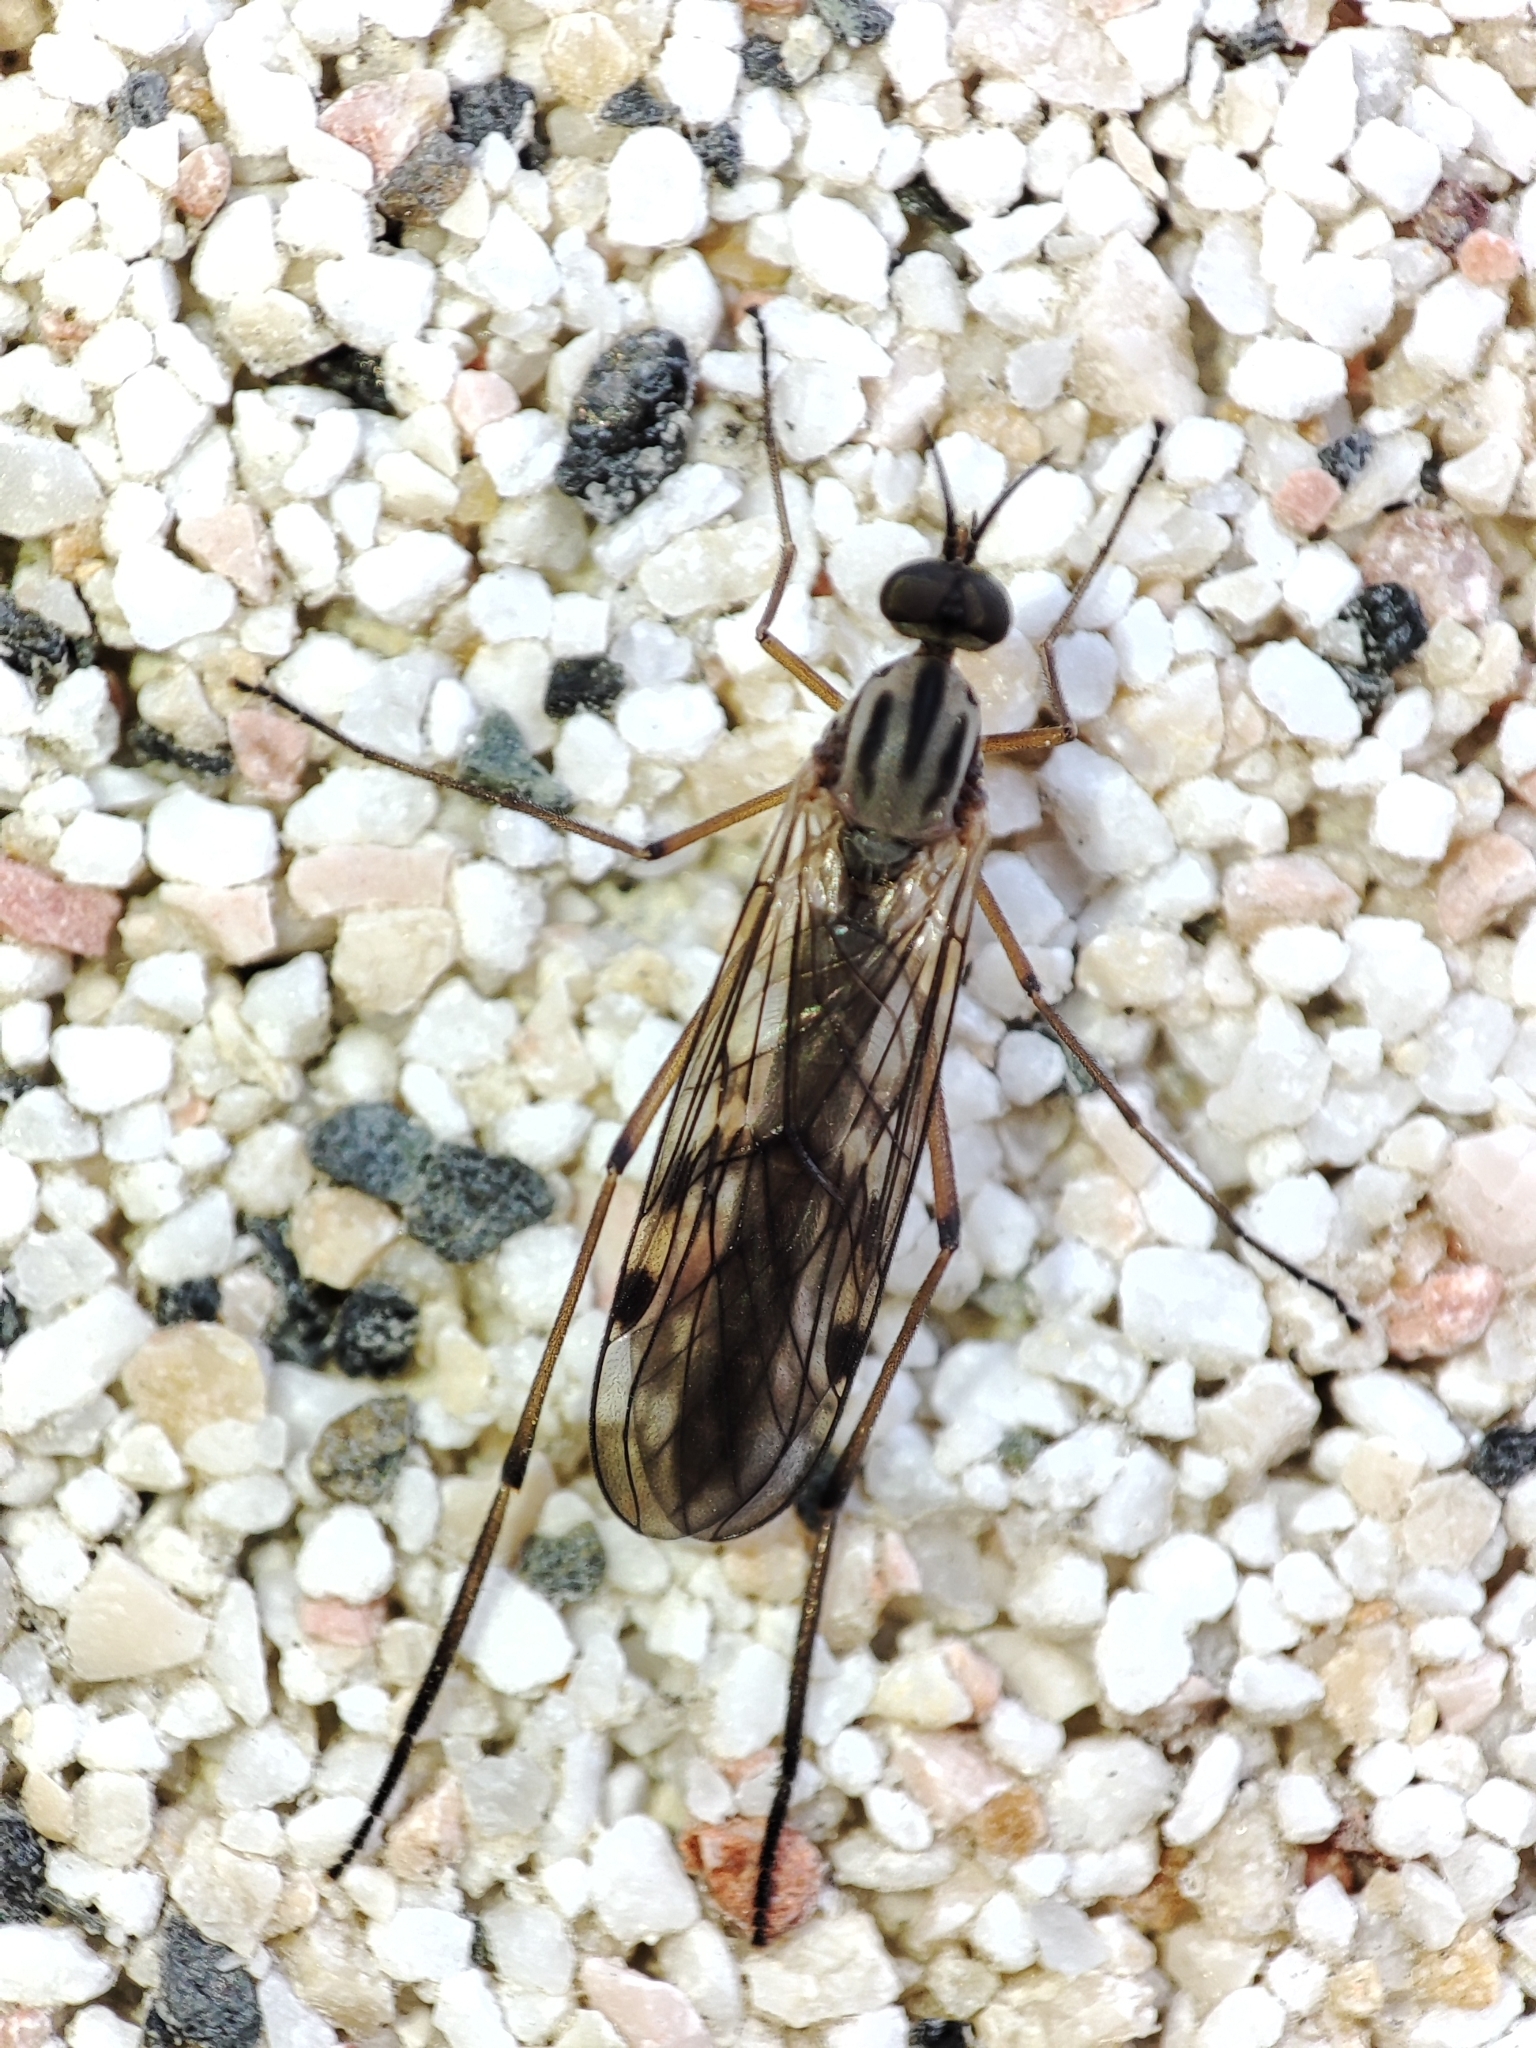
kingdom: Animalia
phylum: Arthropoda
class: Insecta
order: Diptera
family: Anisopodidae
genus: Sylvicola
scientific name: Sylvicola
